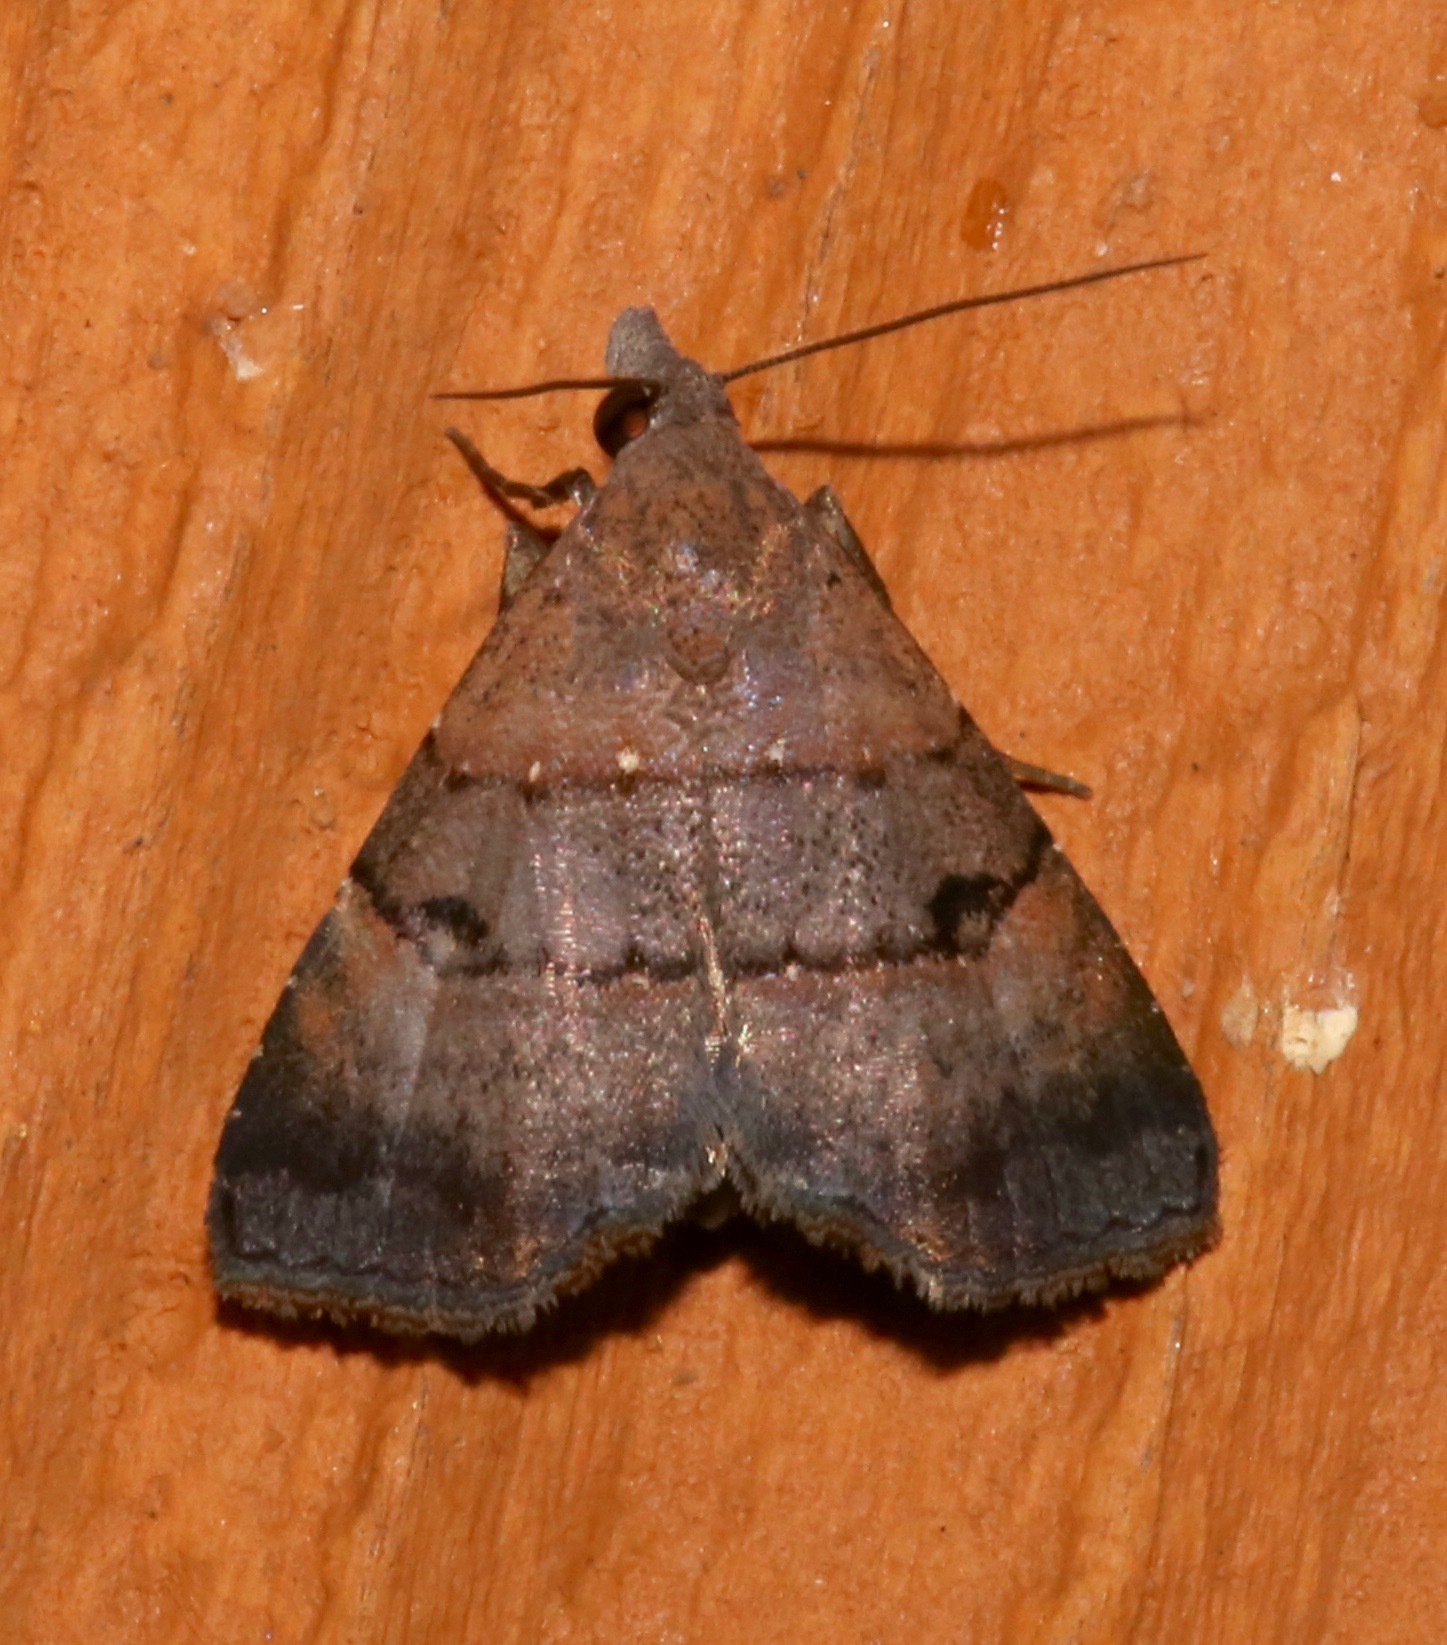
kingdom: Animalia
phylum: Arthropoda
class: Insecta
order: Lepidoptera
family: Noctuidae
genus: Hormoschista
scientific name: Hormoschista latipalpis
